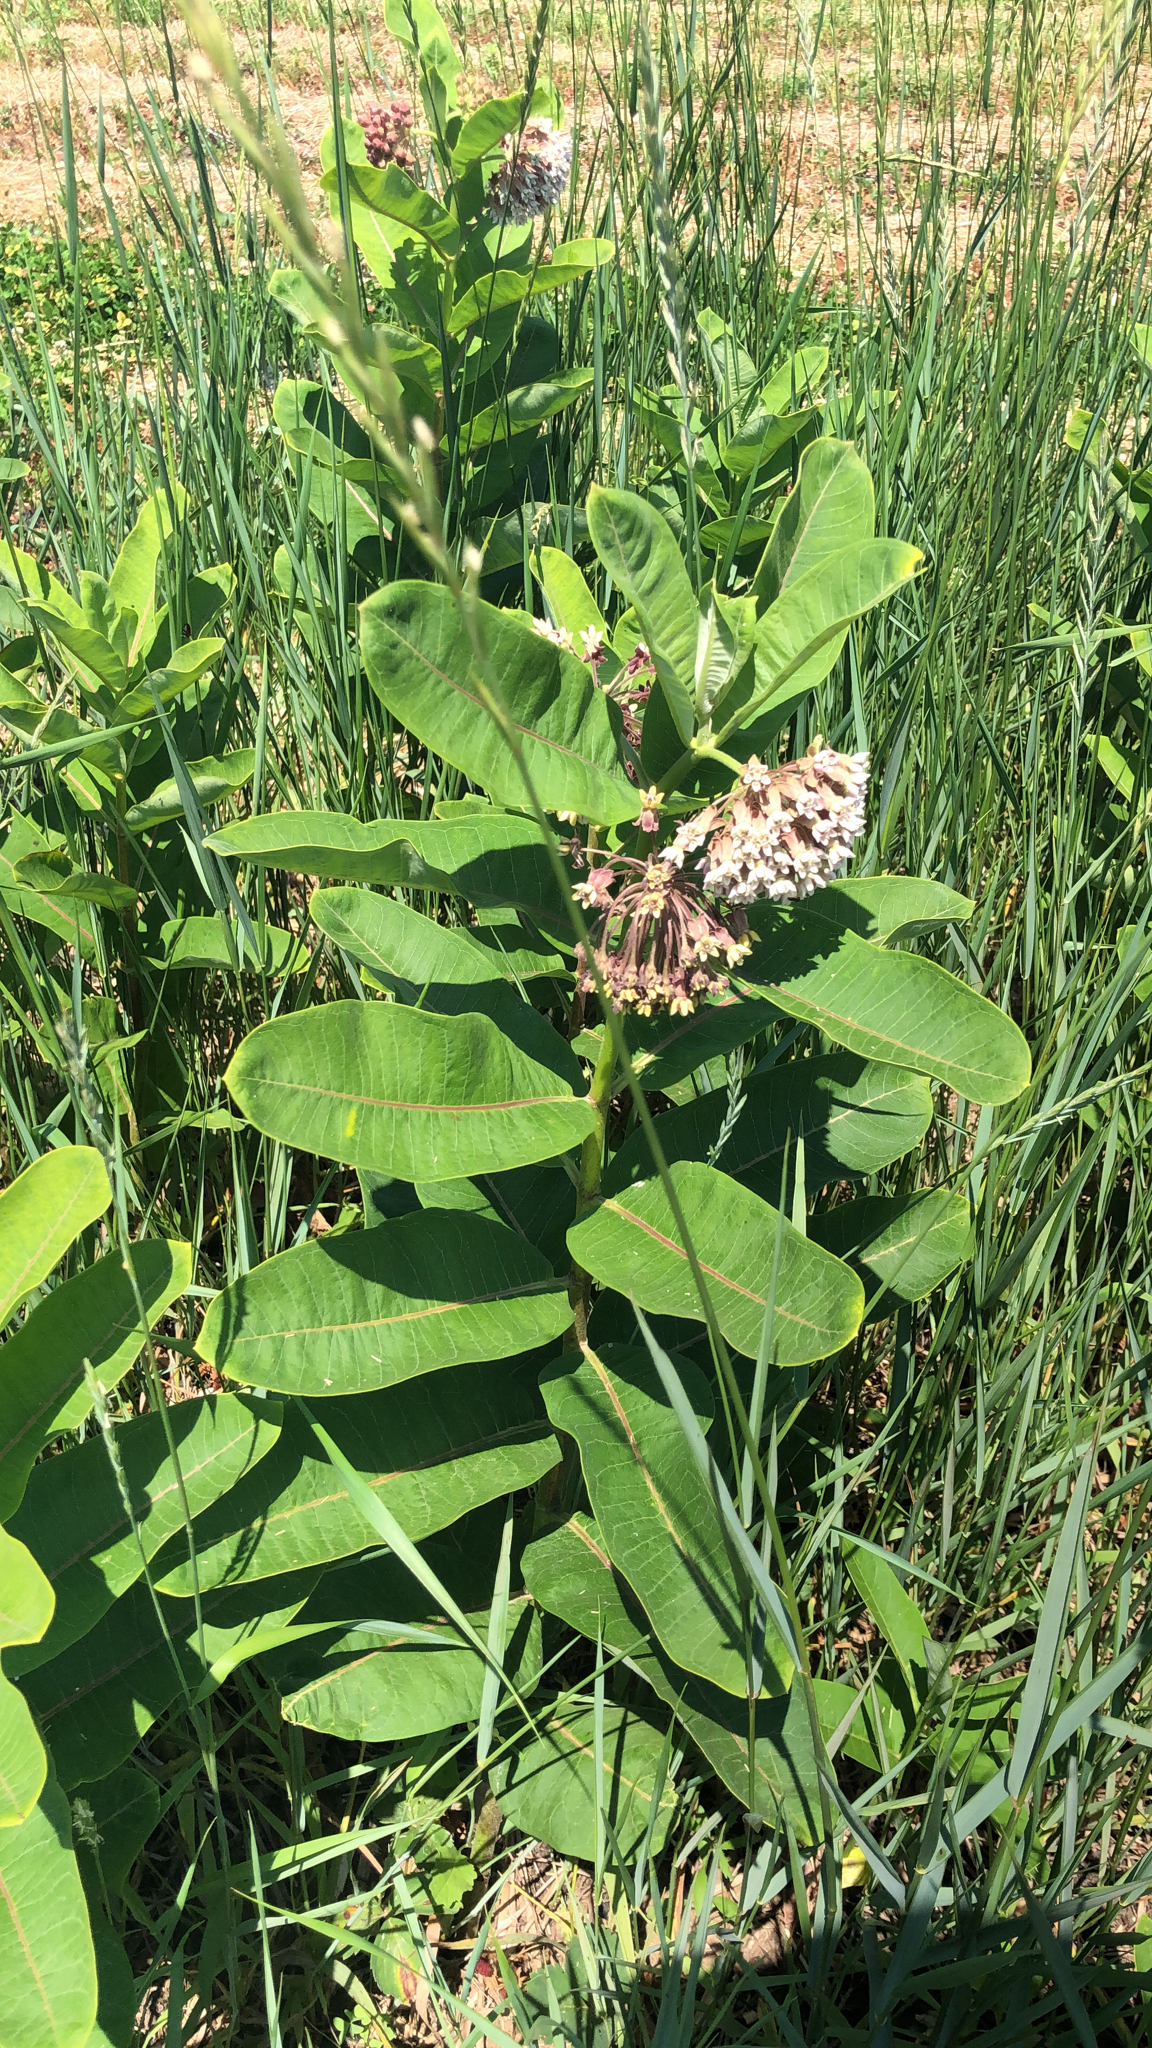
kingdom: Plantae
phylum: Tracheophyta
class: Magnoliopsida
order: Gentianales
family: Apocynaceae
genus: Asclepias
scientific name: Asclepias syriaca
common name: Common milkweed
